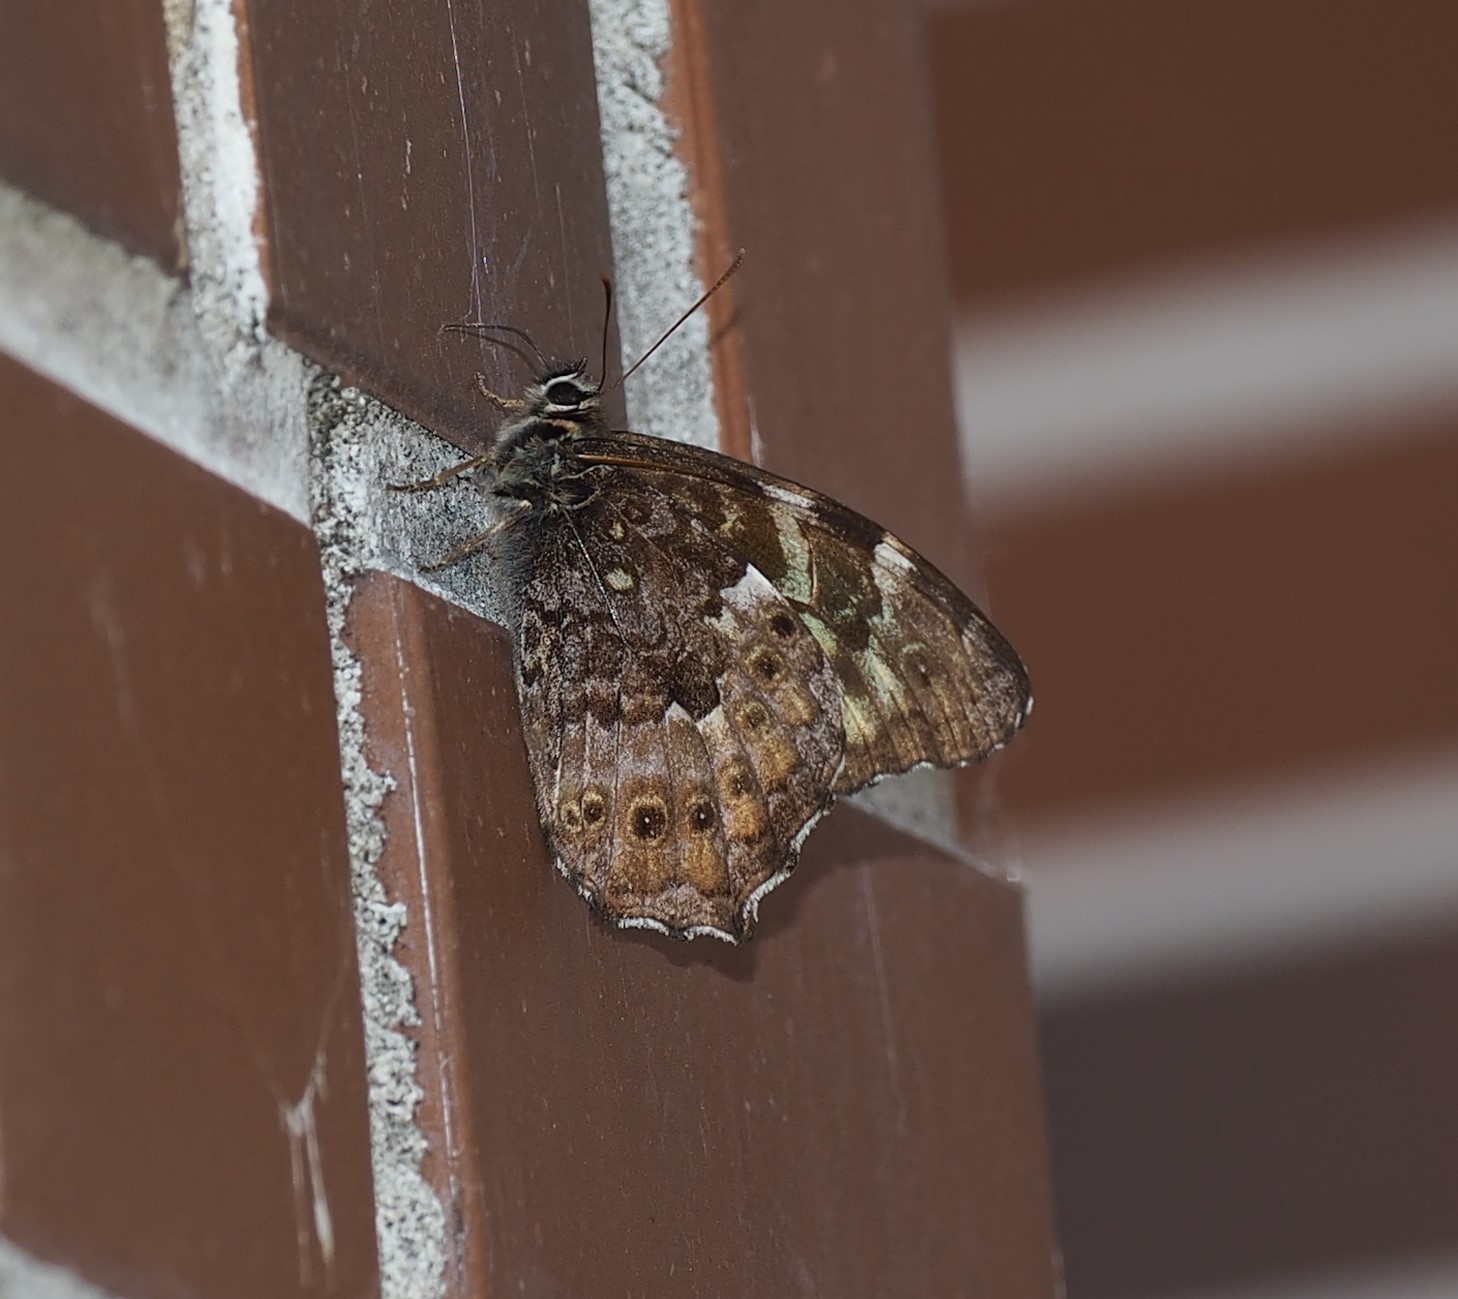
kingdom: Animalia
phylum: Arthropoda
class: Insecta
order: Lepidoptera
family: Nymphalidae
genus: Neope
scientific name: Neope pulaha
